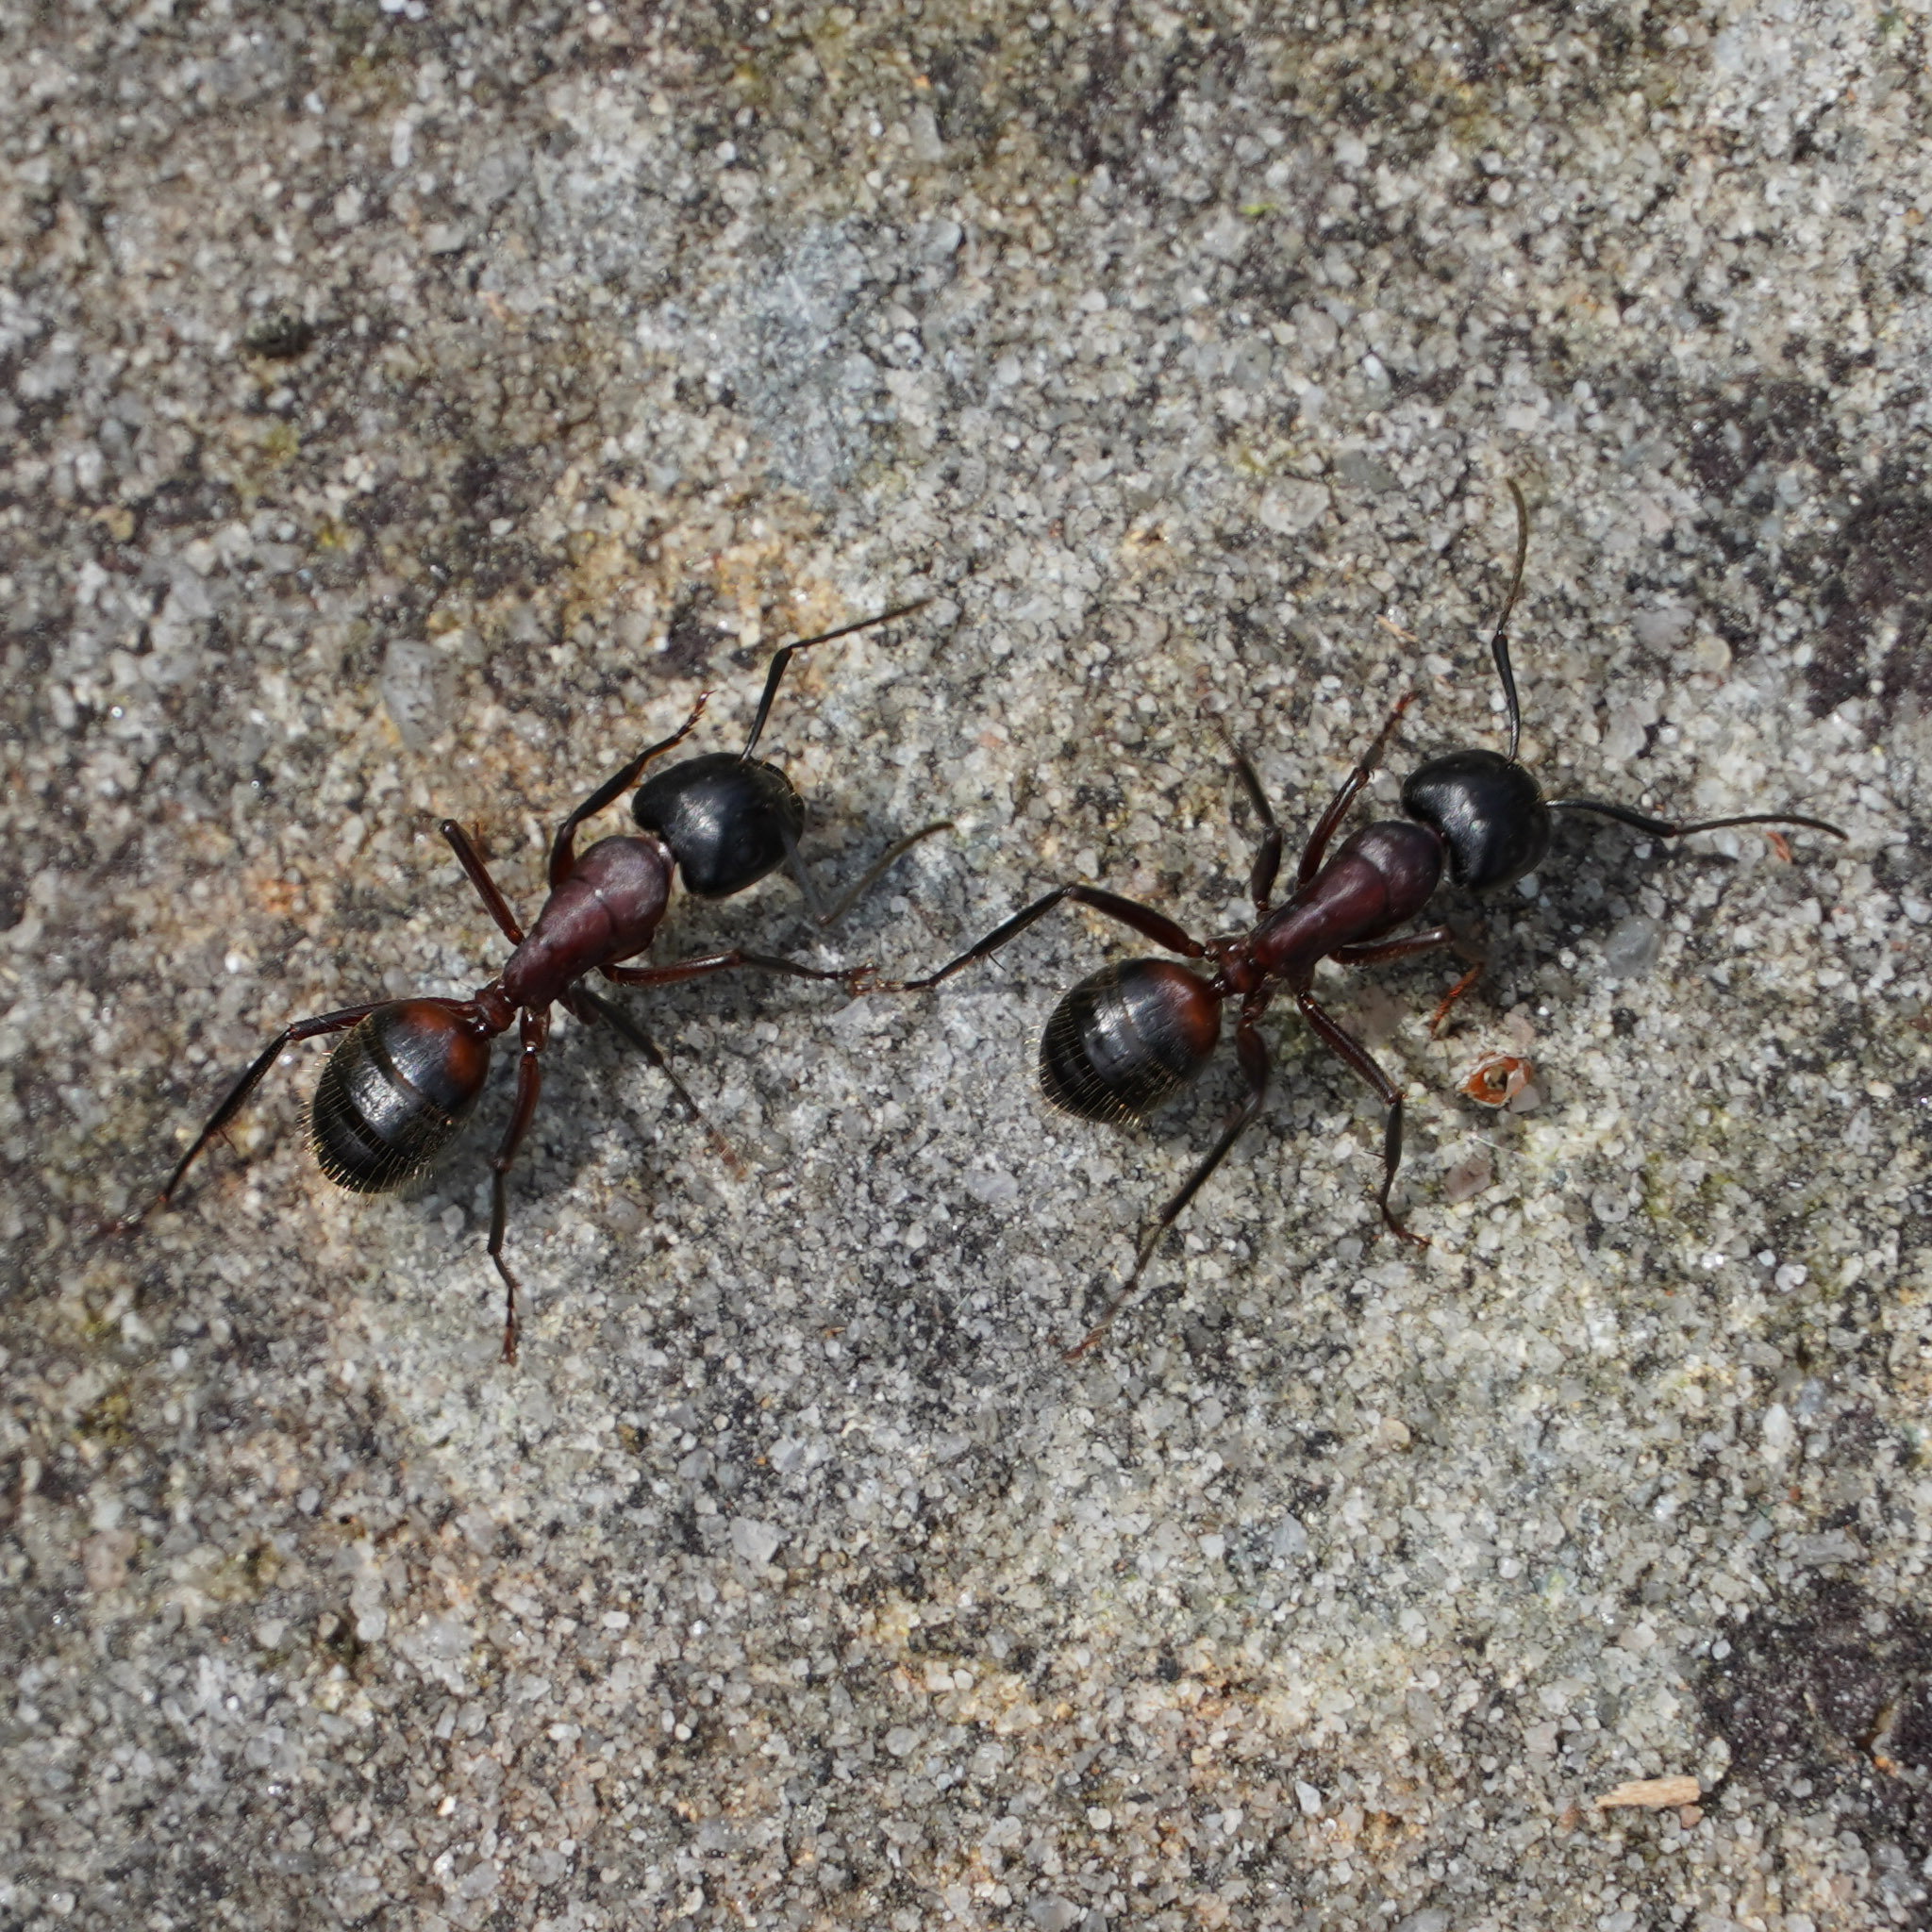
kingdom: Animalia
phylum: Arthropoda
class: Insecta
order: Hymenoptera
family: Formicidae
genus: Camponotus
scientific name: Camponotus ligniperdus
